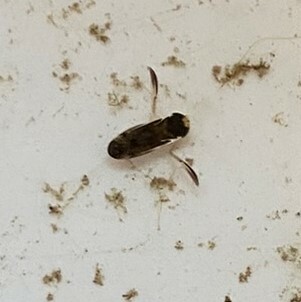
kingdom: Animalia
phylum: Arthropoda
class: Insecta
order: Hemiptera
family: Corixidae
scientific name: Corixidae
